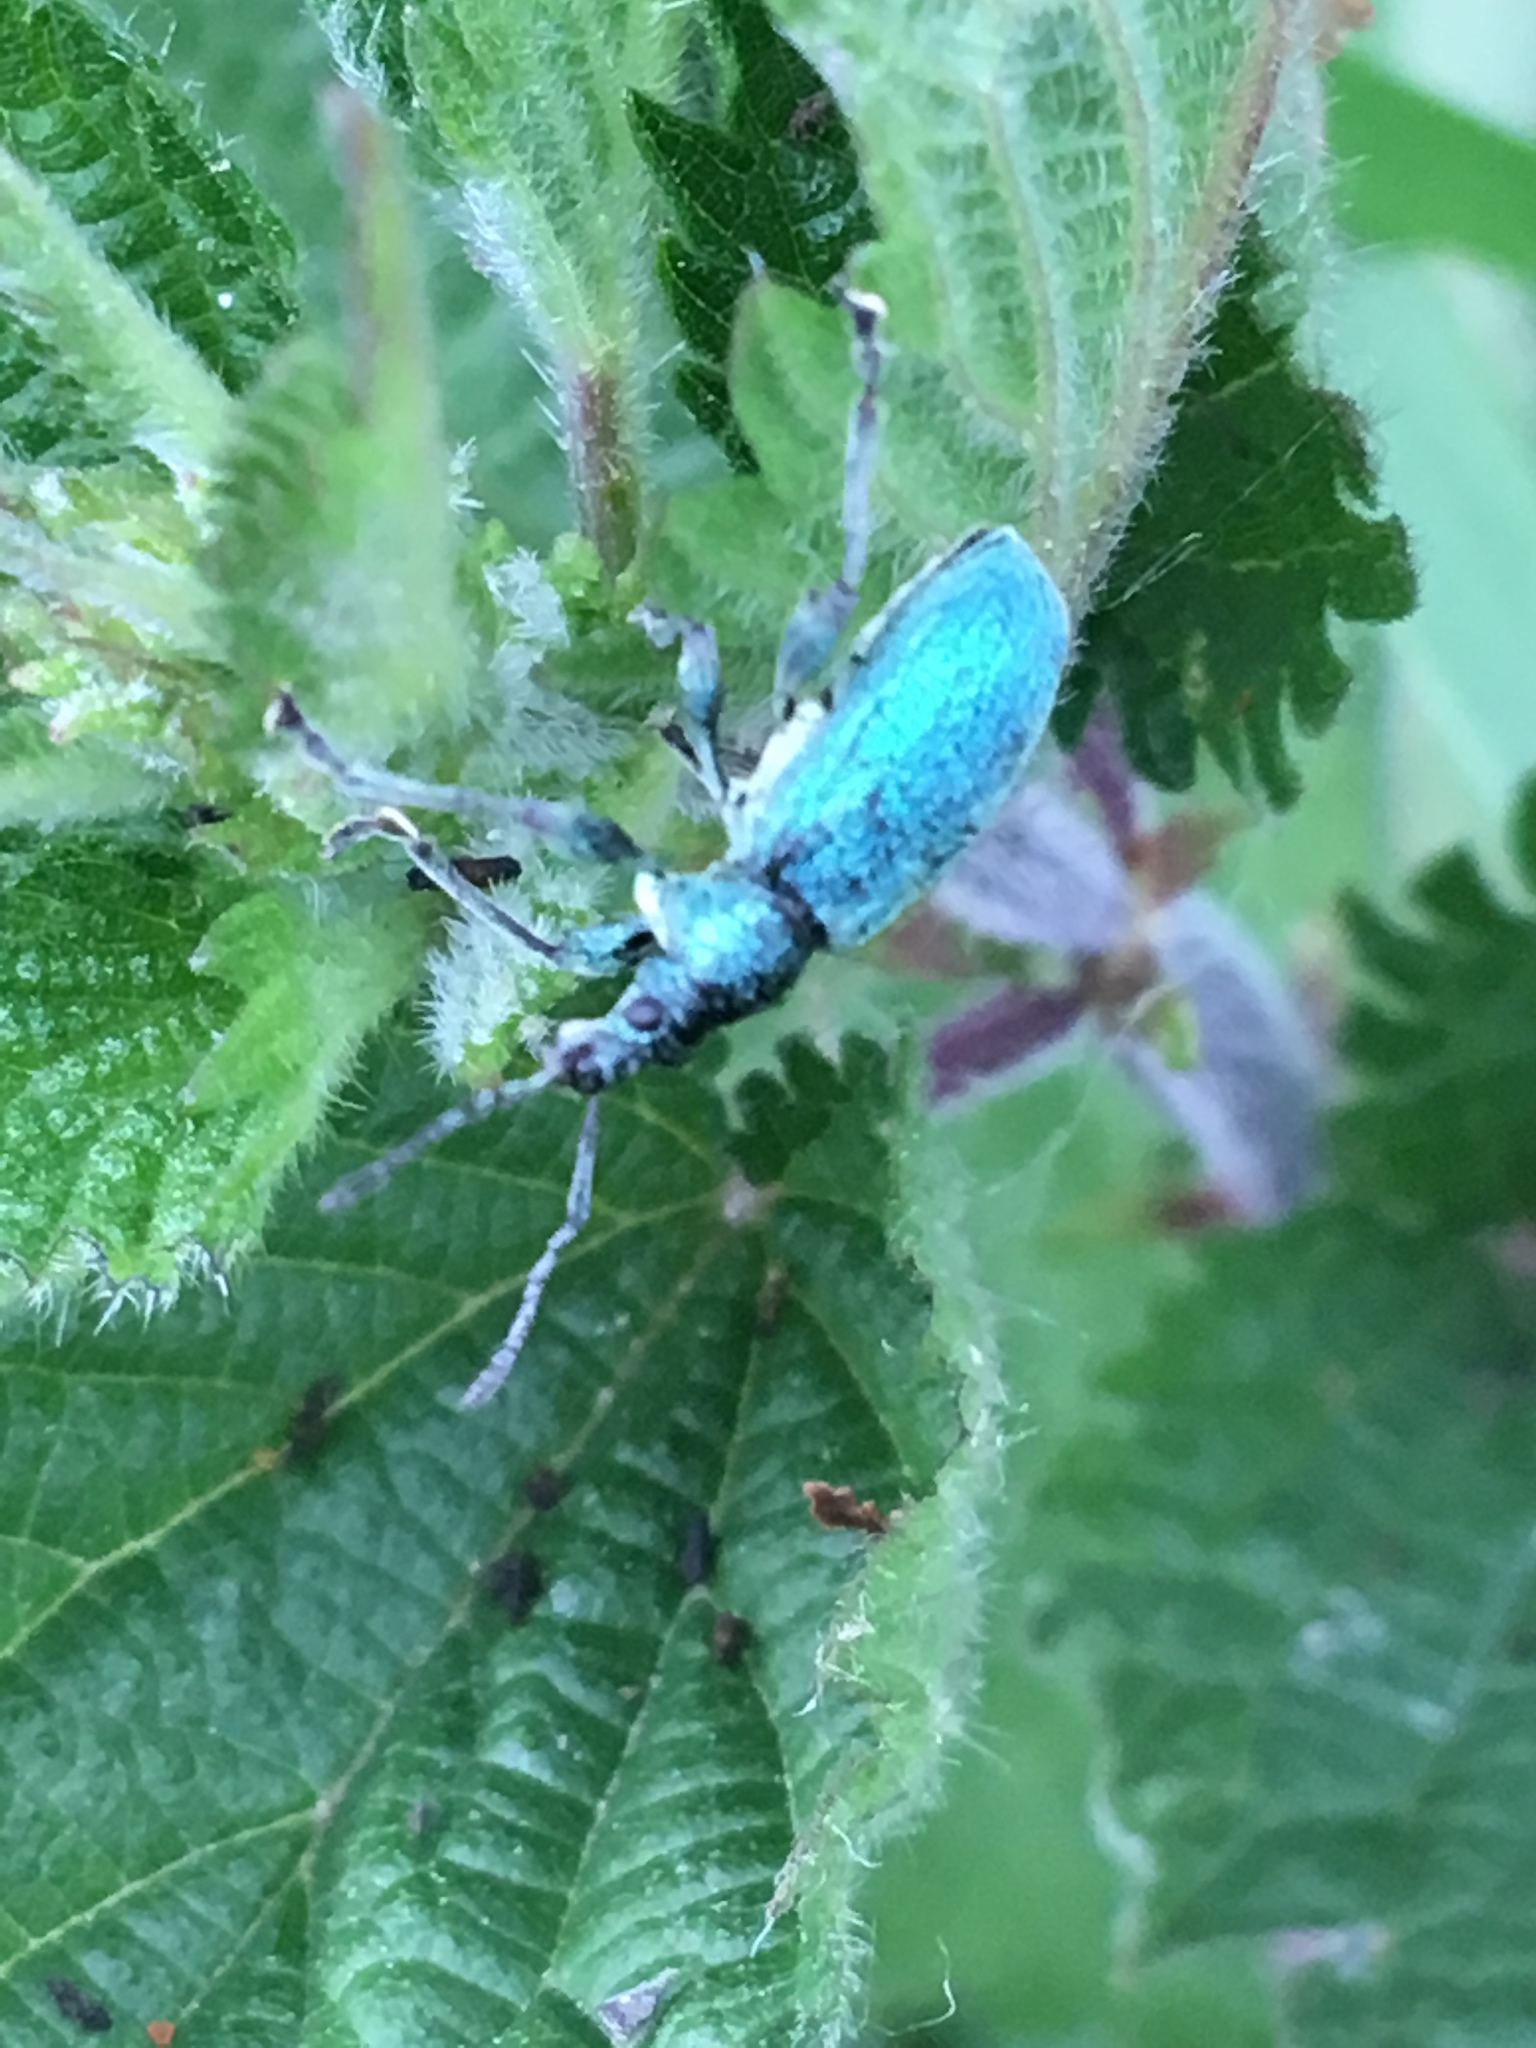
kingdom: Animalia
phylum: Arthropoda
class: Insecta
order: Coleoptera
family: Curculionidae
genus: Phyllobius
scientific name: Phyllobius pomaceus
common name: Green nettle weevil
